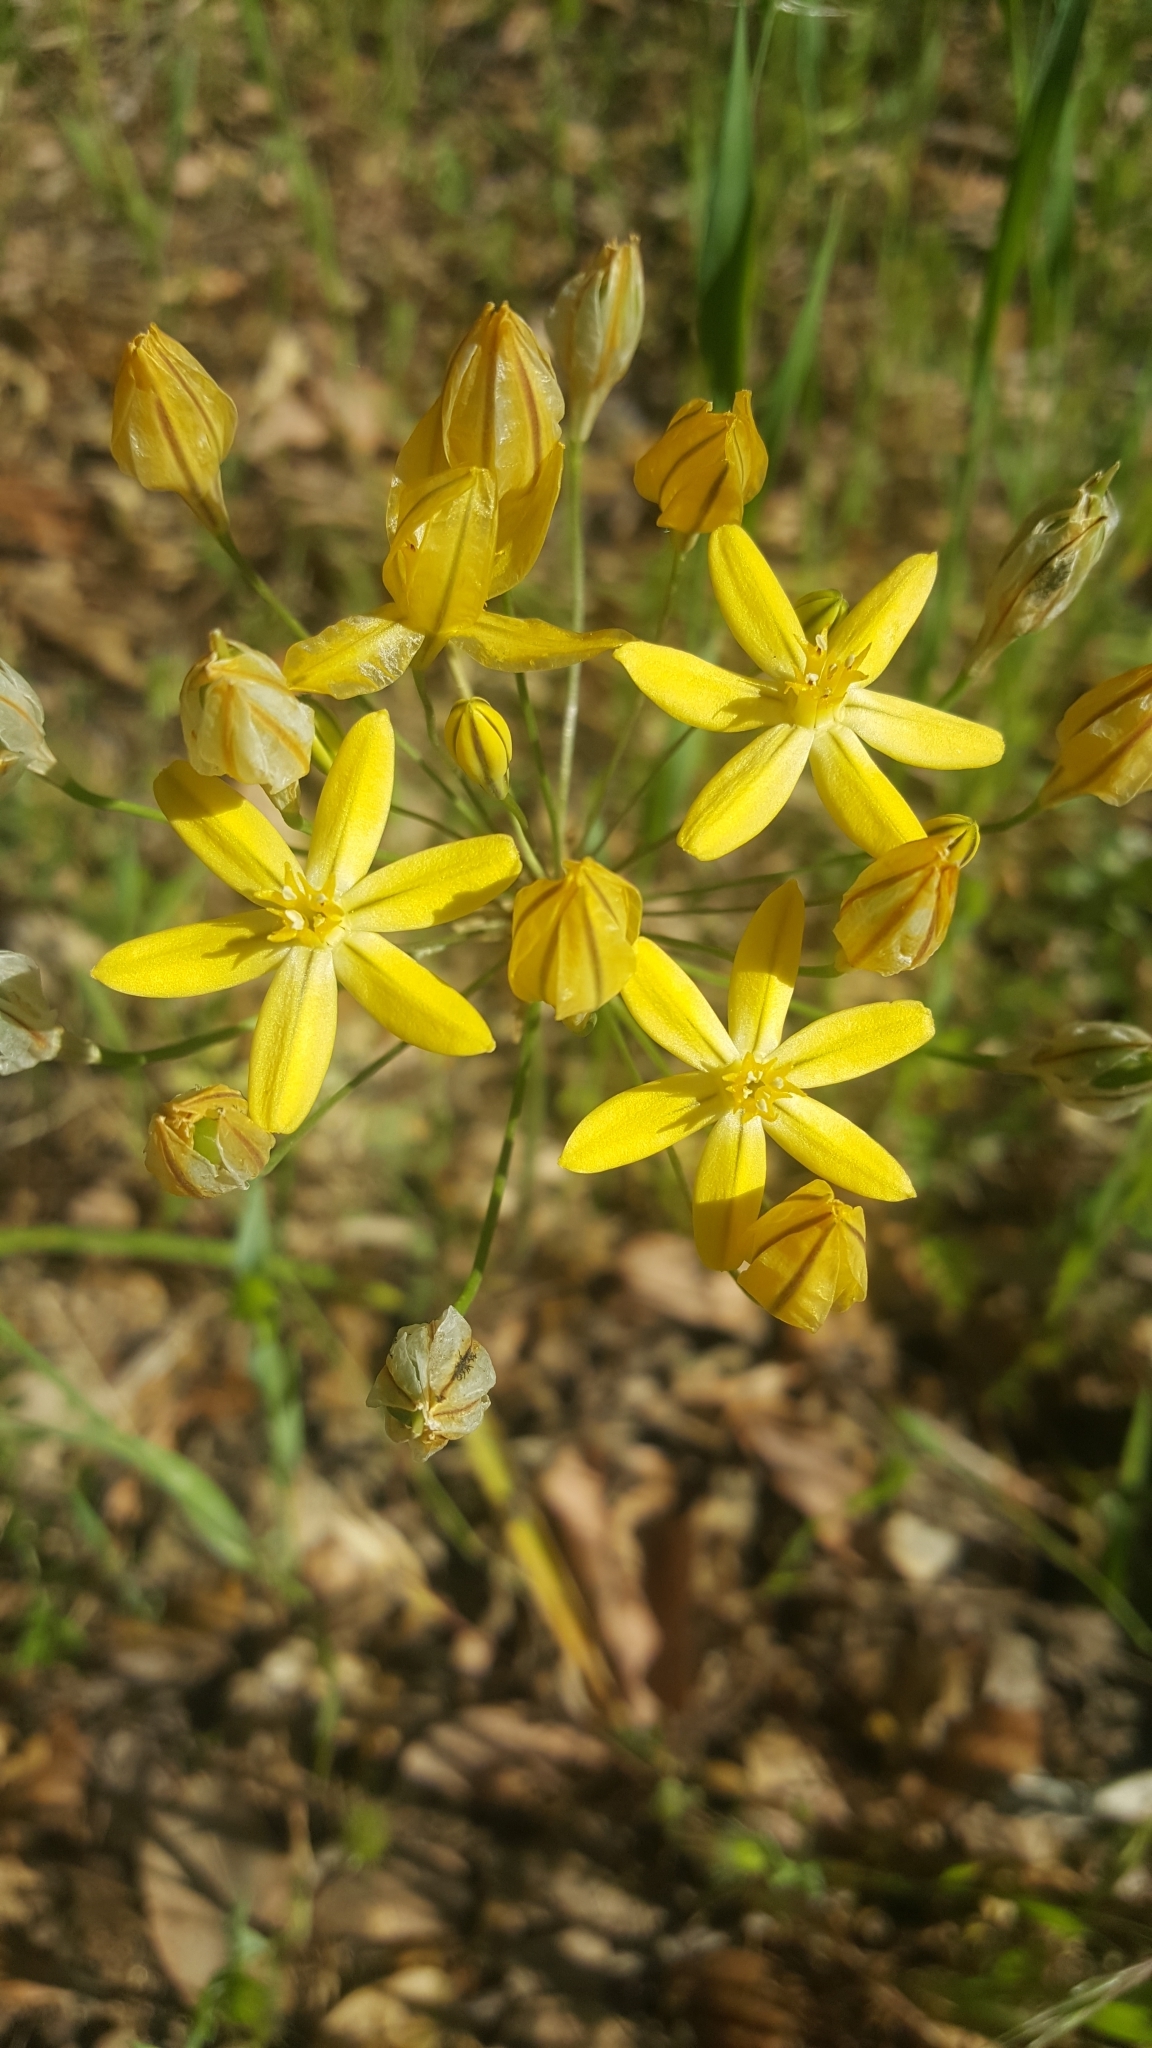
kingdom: Plantae
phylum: Tracheophyta
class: Liliopsida
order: Asparagales
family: Asparagaceae
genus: Triteleia
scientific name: Triteleia ixioides
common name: Yellow-brodiaea
